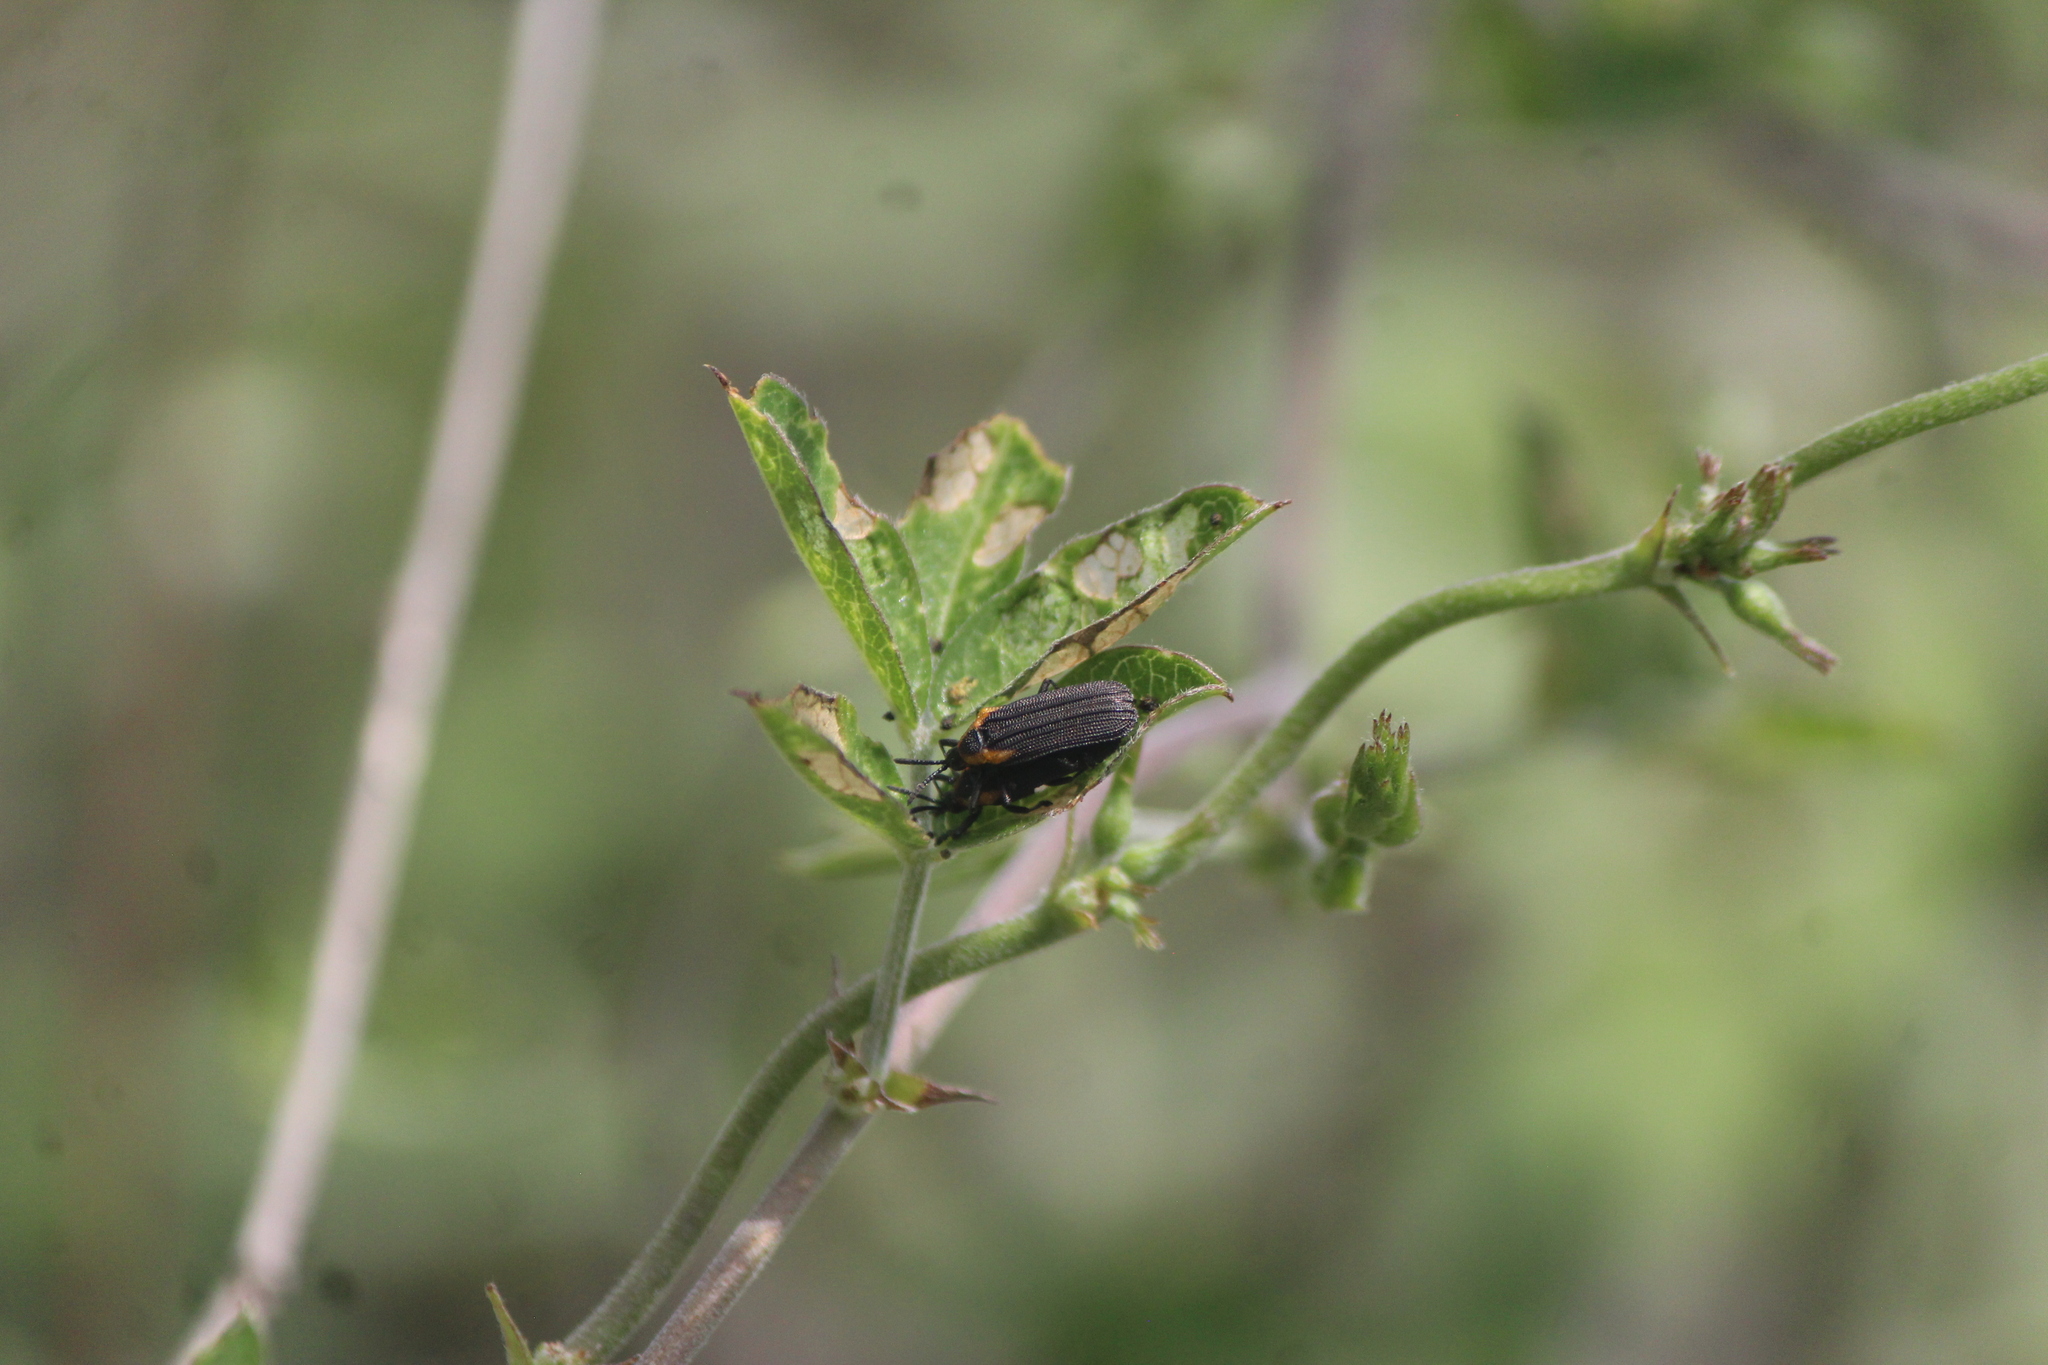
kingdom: Animalia
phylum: Arthropoda
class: Insecta
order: Coleoptera
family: Chrysomelidae
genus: Xenochalepus
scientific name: Xenochalepus metallescens
